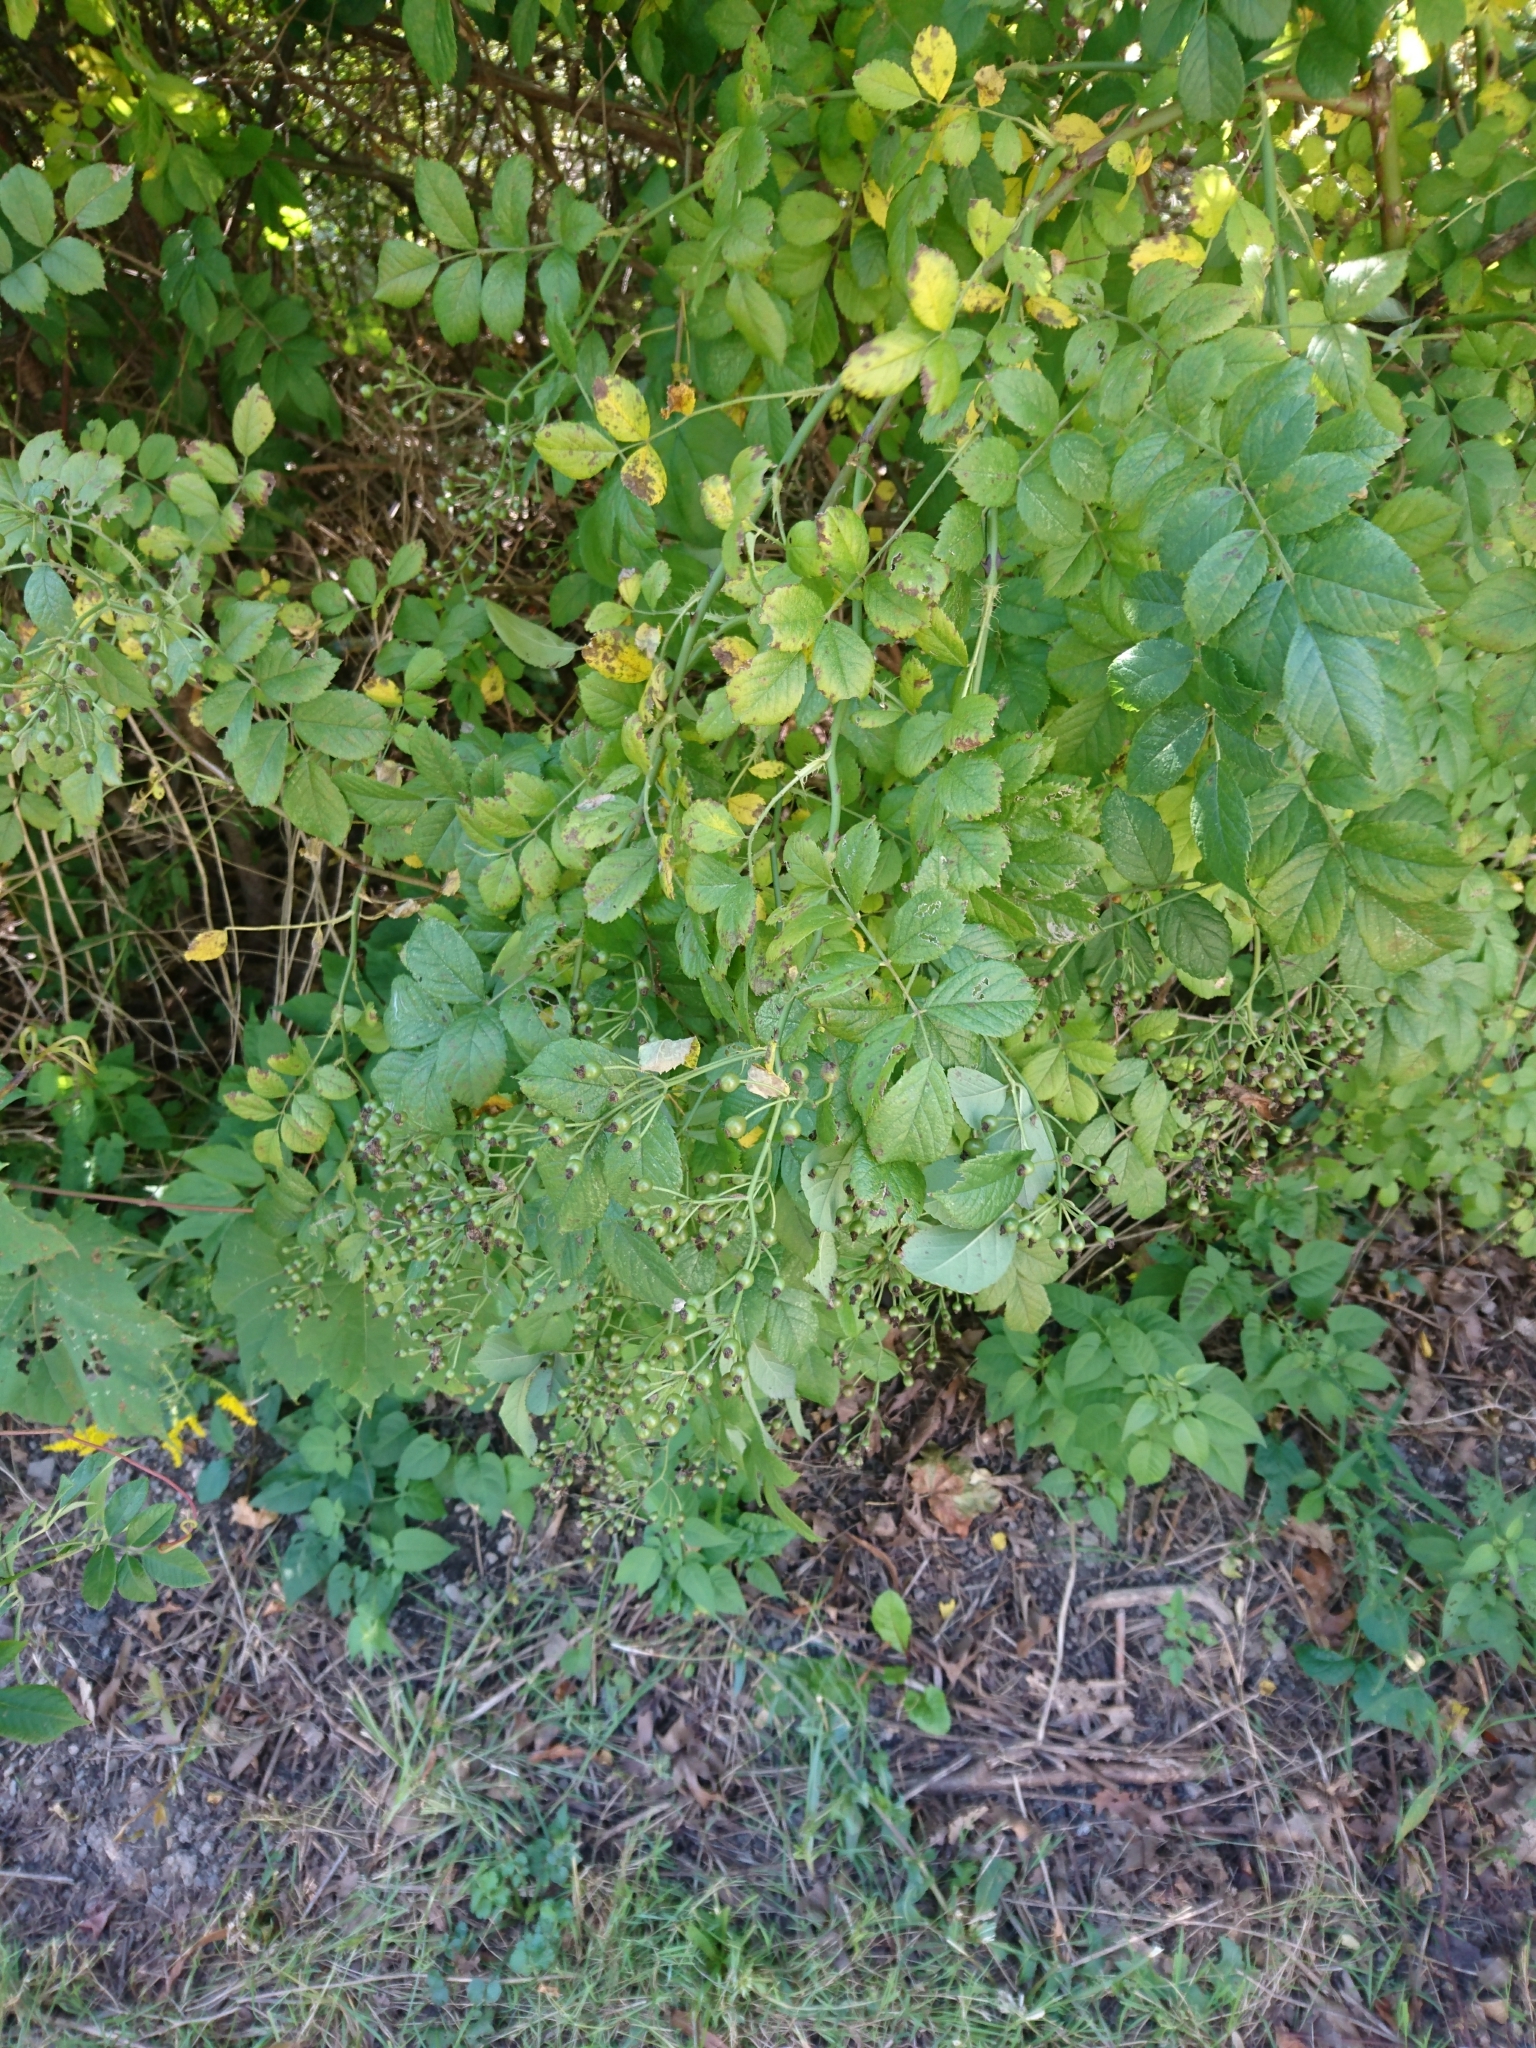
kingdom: Plantae
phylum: Tracheophyta
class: Magnoliopsida
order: Rosales
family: Rosaceae
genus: Rosa
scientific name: Rosa multiflora
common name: Multiflora rose
